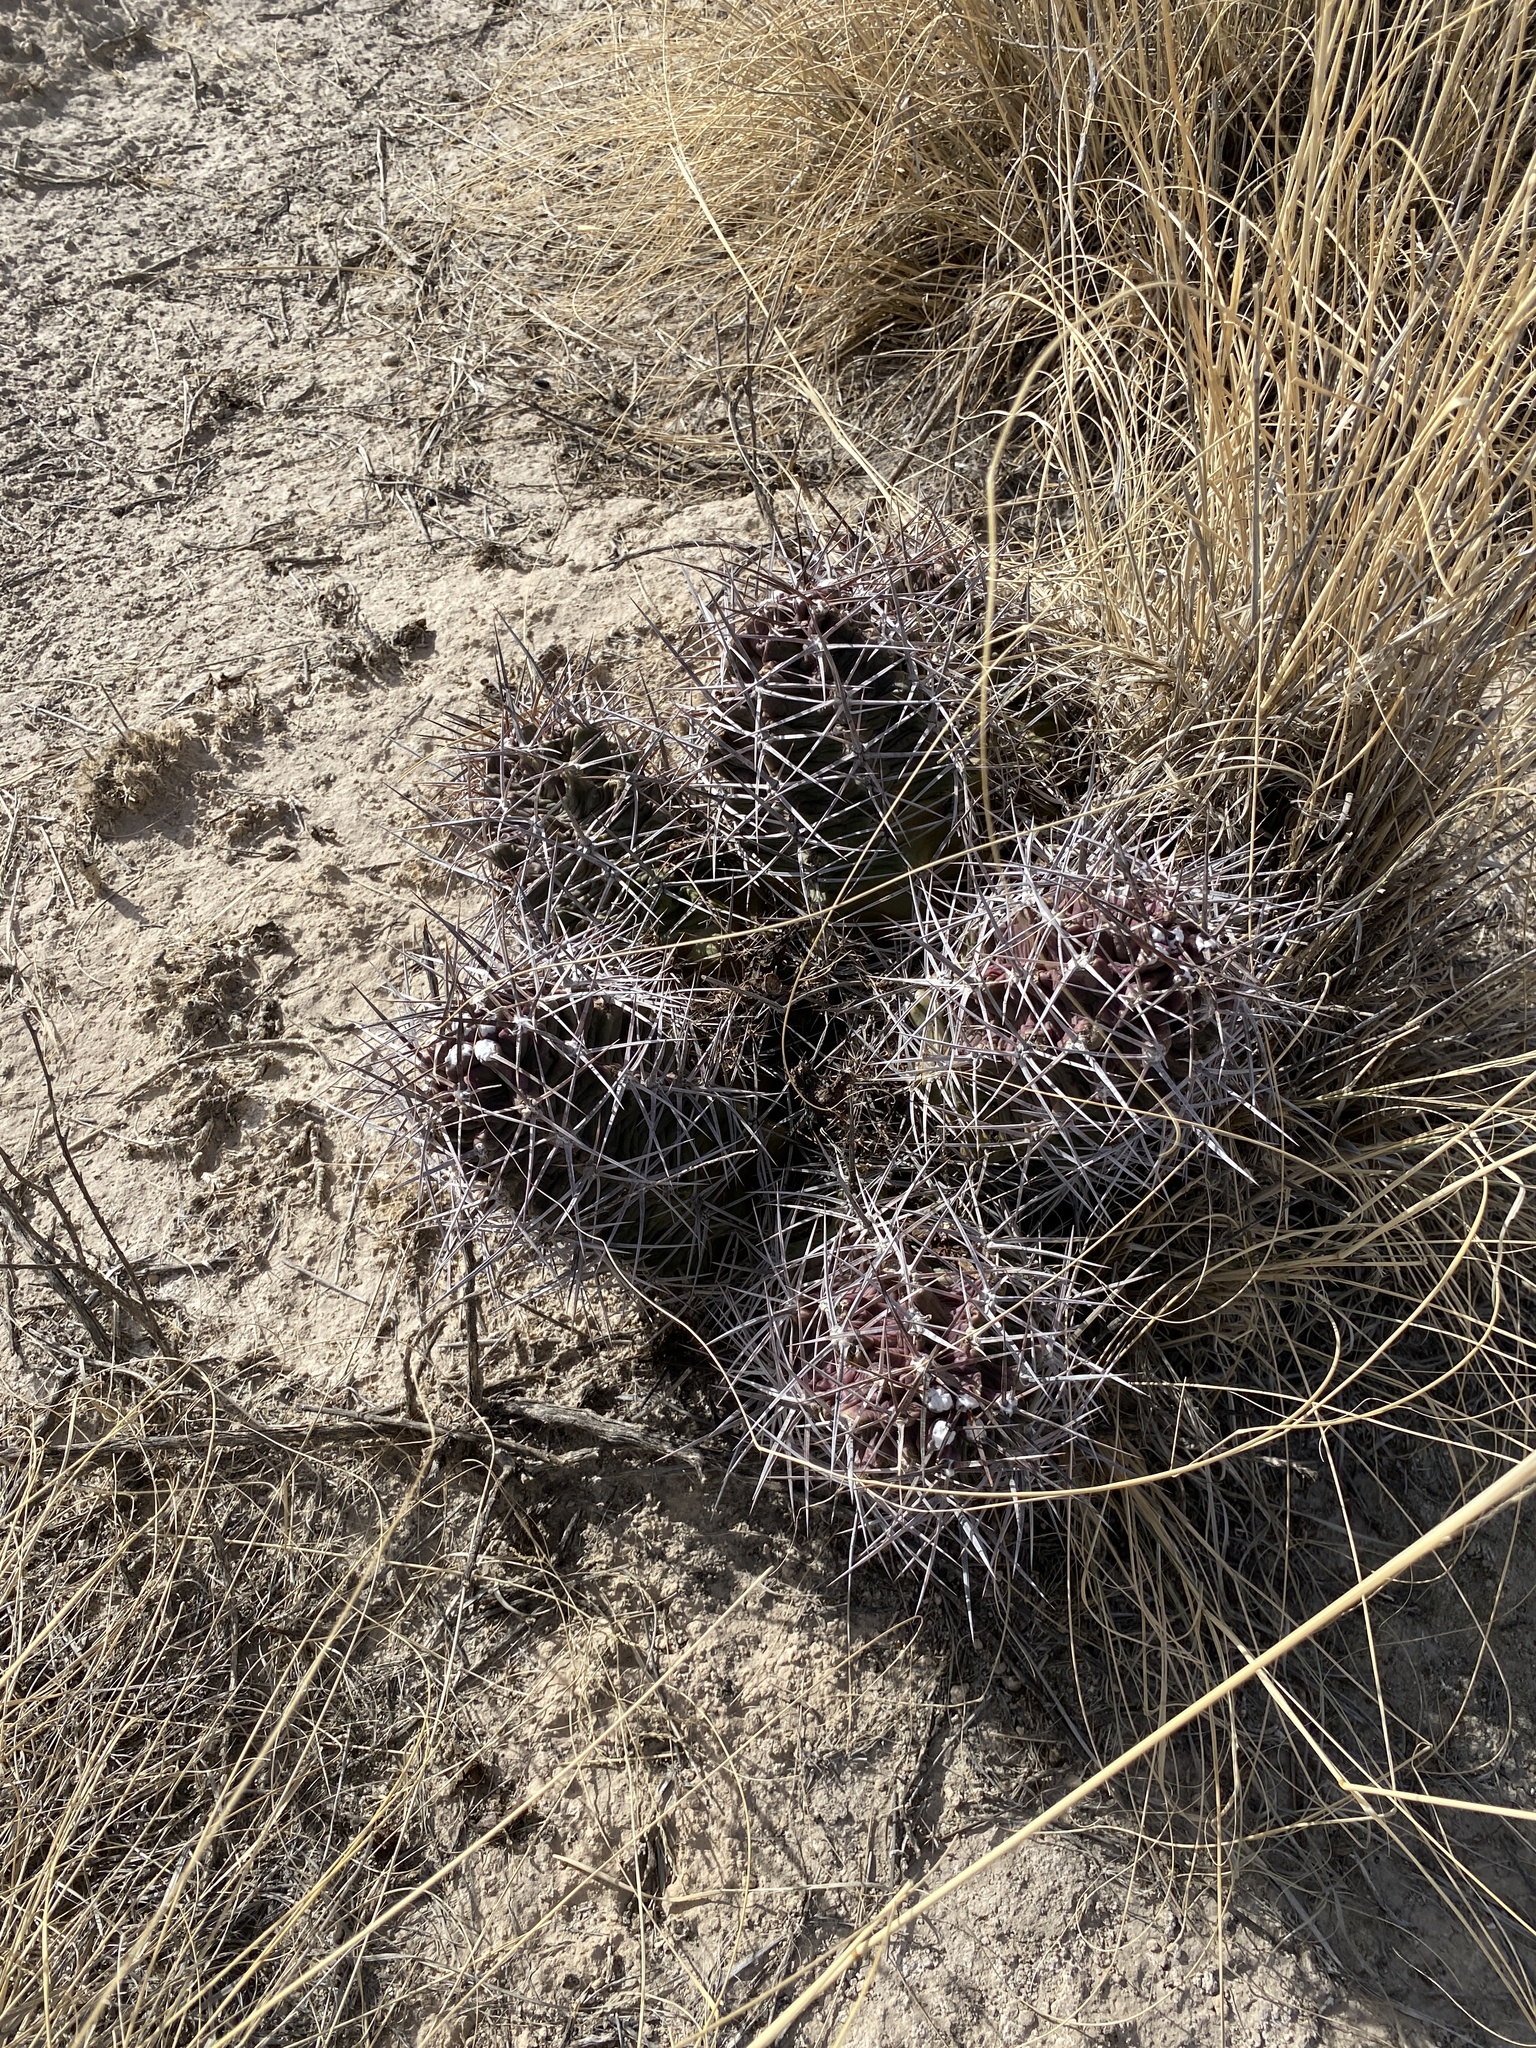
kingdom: Plantae
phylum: Tracheophyta
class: Magnoliopsida
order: Caryophyllales
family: Cactaceae
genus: Echinocereus
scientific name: Echinocereus triglochidiatus
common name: Claretcup hedgehog
